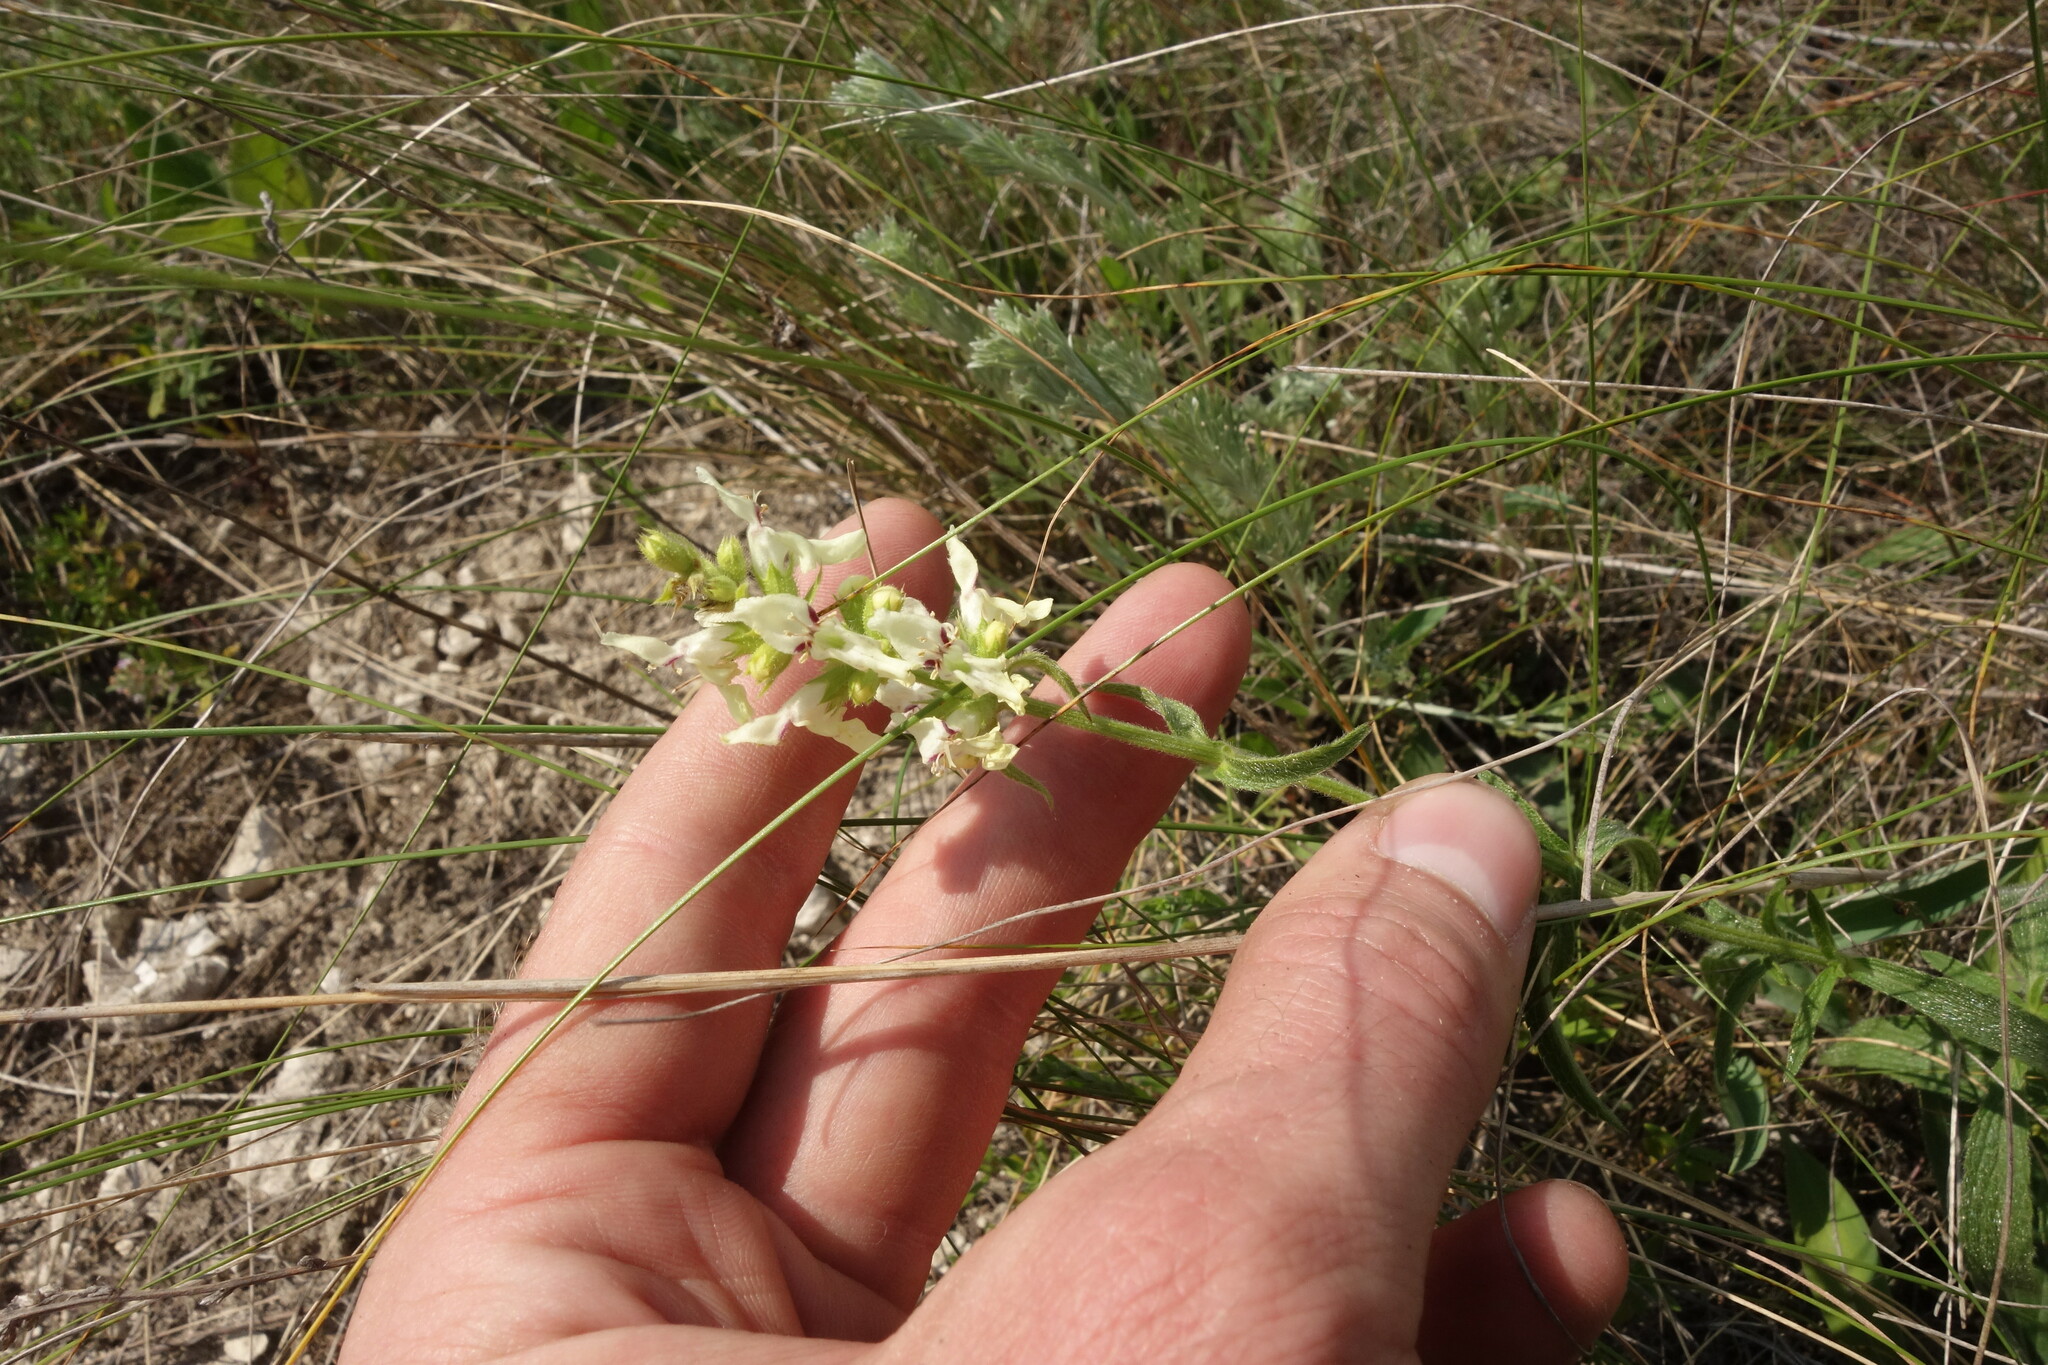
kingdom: Plantae
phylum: Tracheophyta
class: Magnoliopsida
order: Lamiales
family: Lamiaceae
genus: Stachys
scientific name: Stachys recta
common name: Perennial yellow-woundwort
